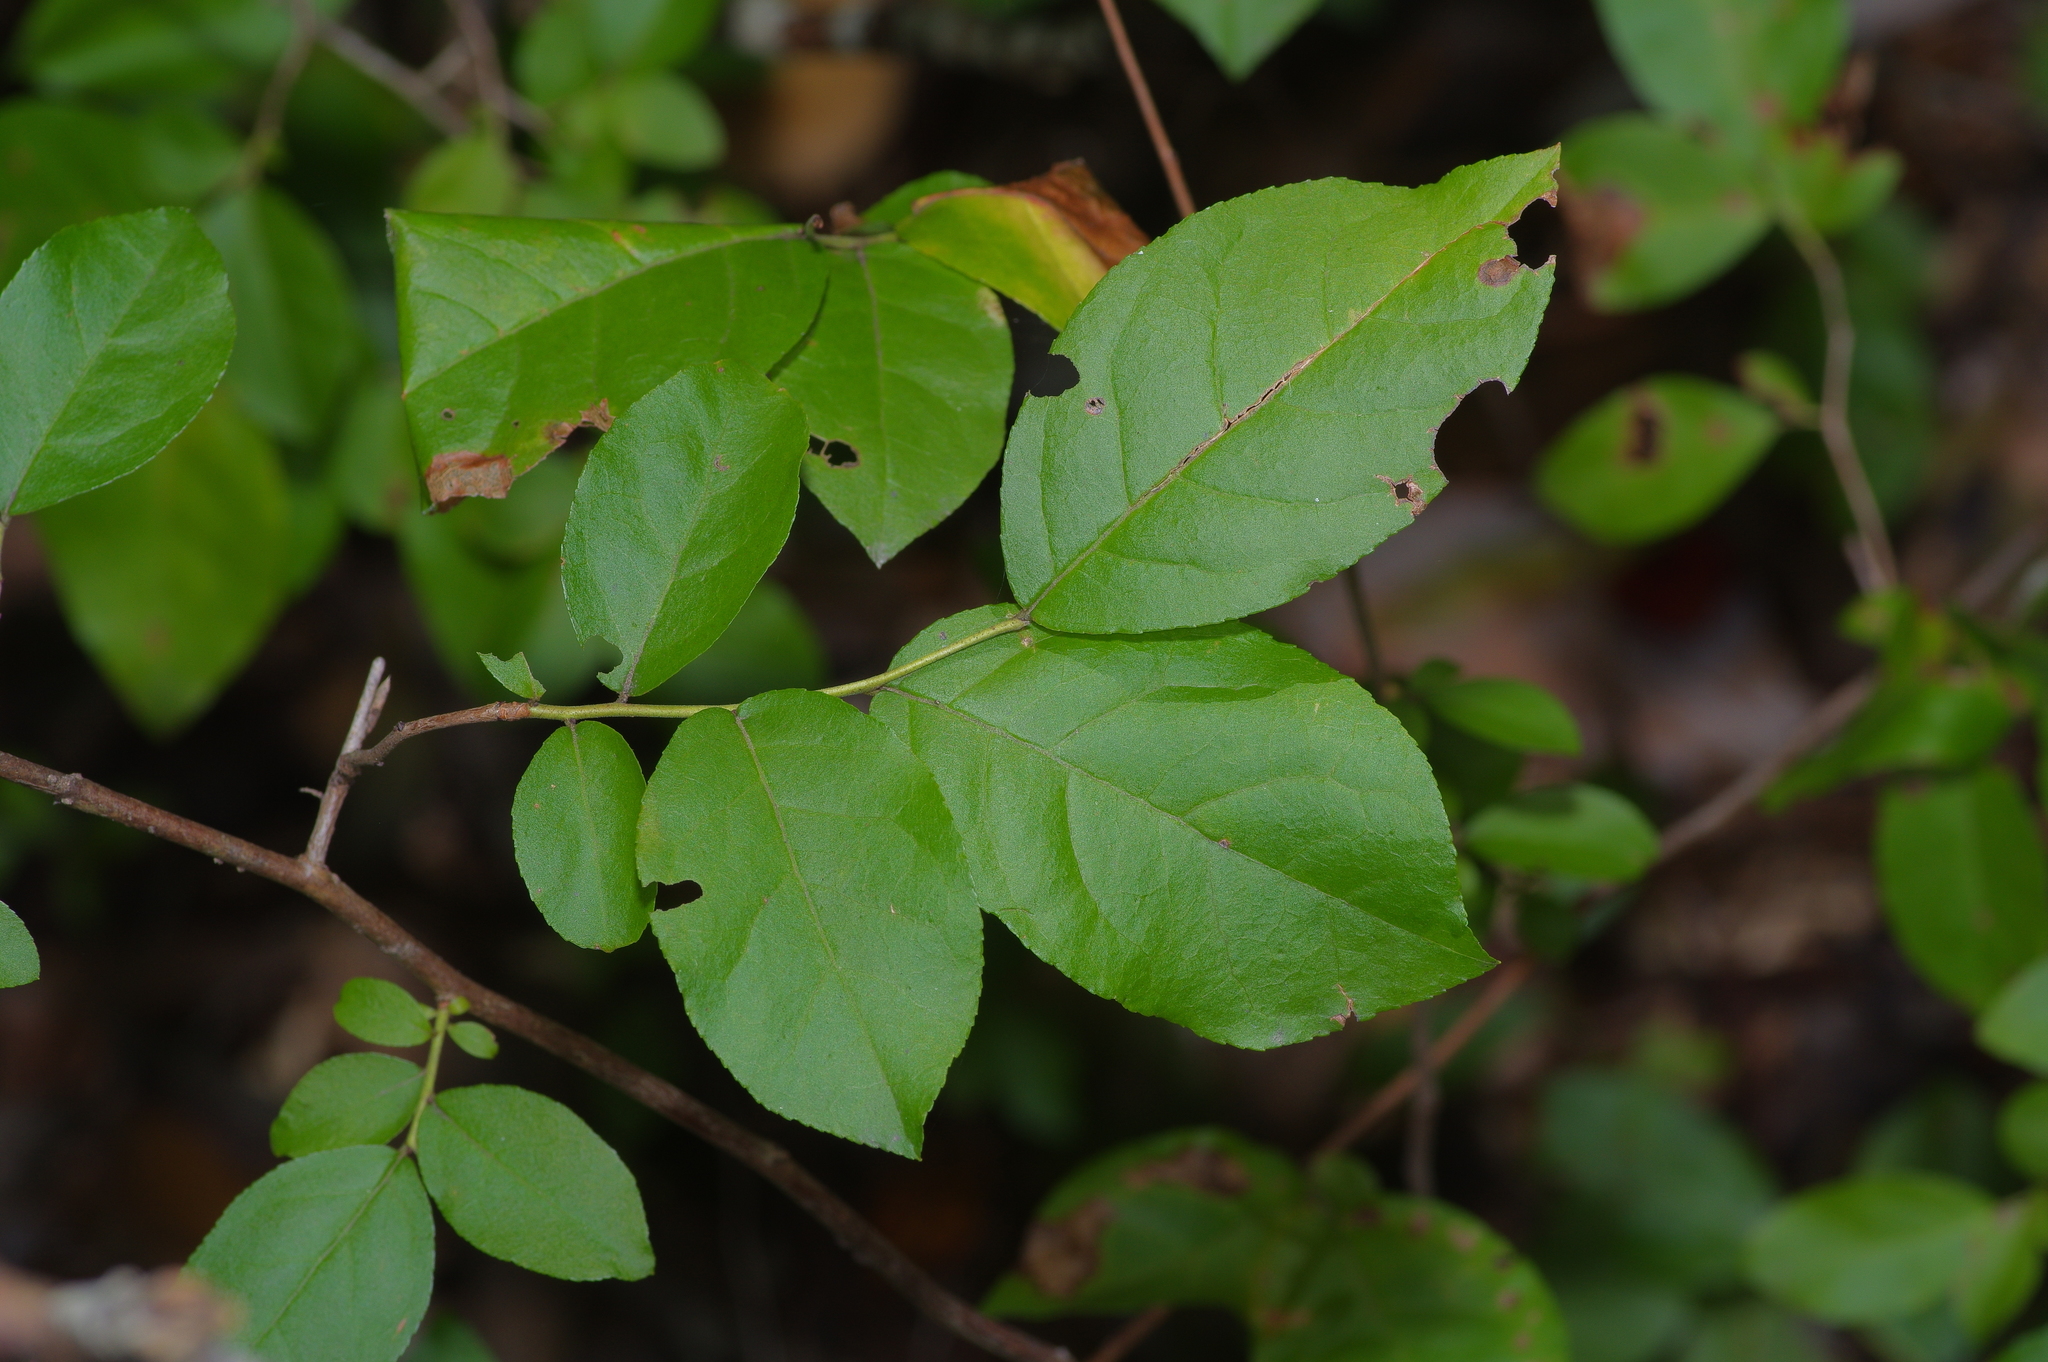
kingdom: Plantae
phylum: Tracheophyta
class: Magnoliopsida
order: Ericales
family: Ericaceae
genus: Eubotrys
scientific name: Eubotrys racemosa
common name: Fetterbush
